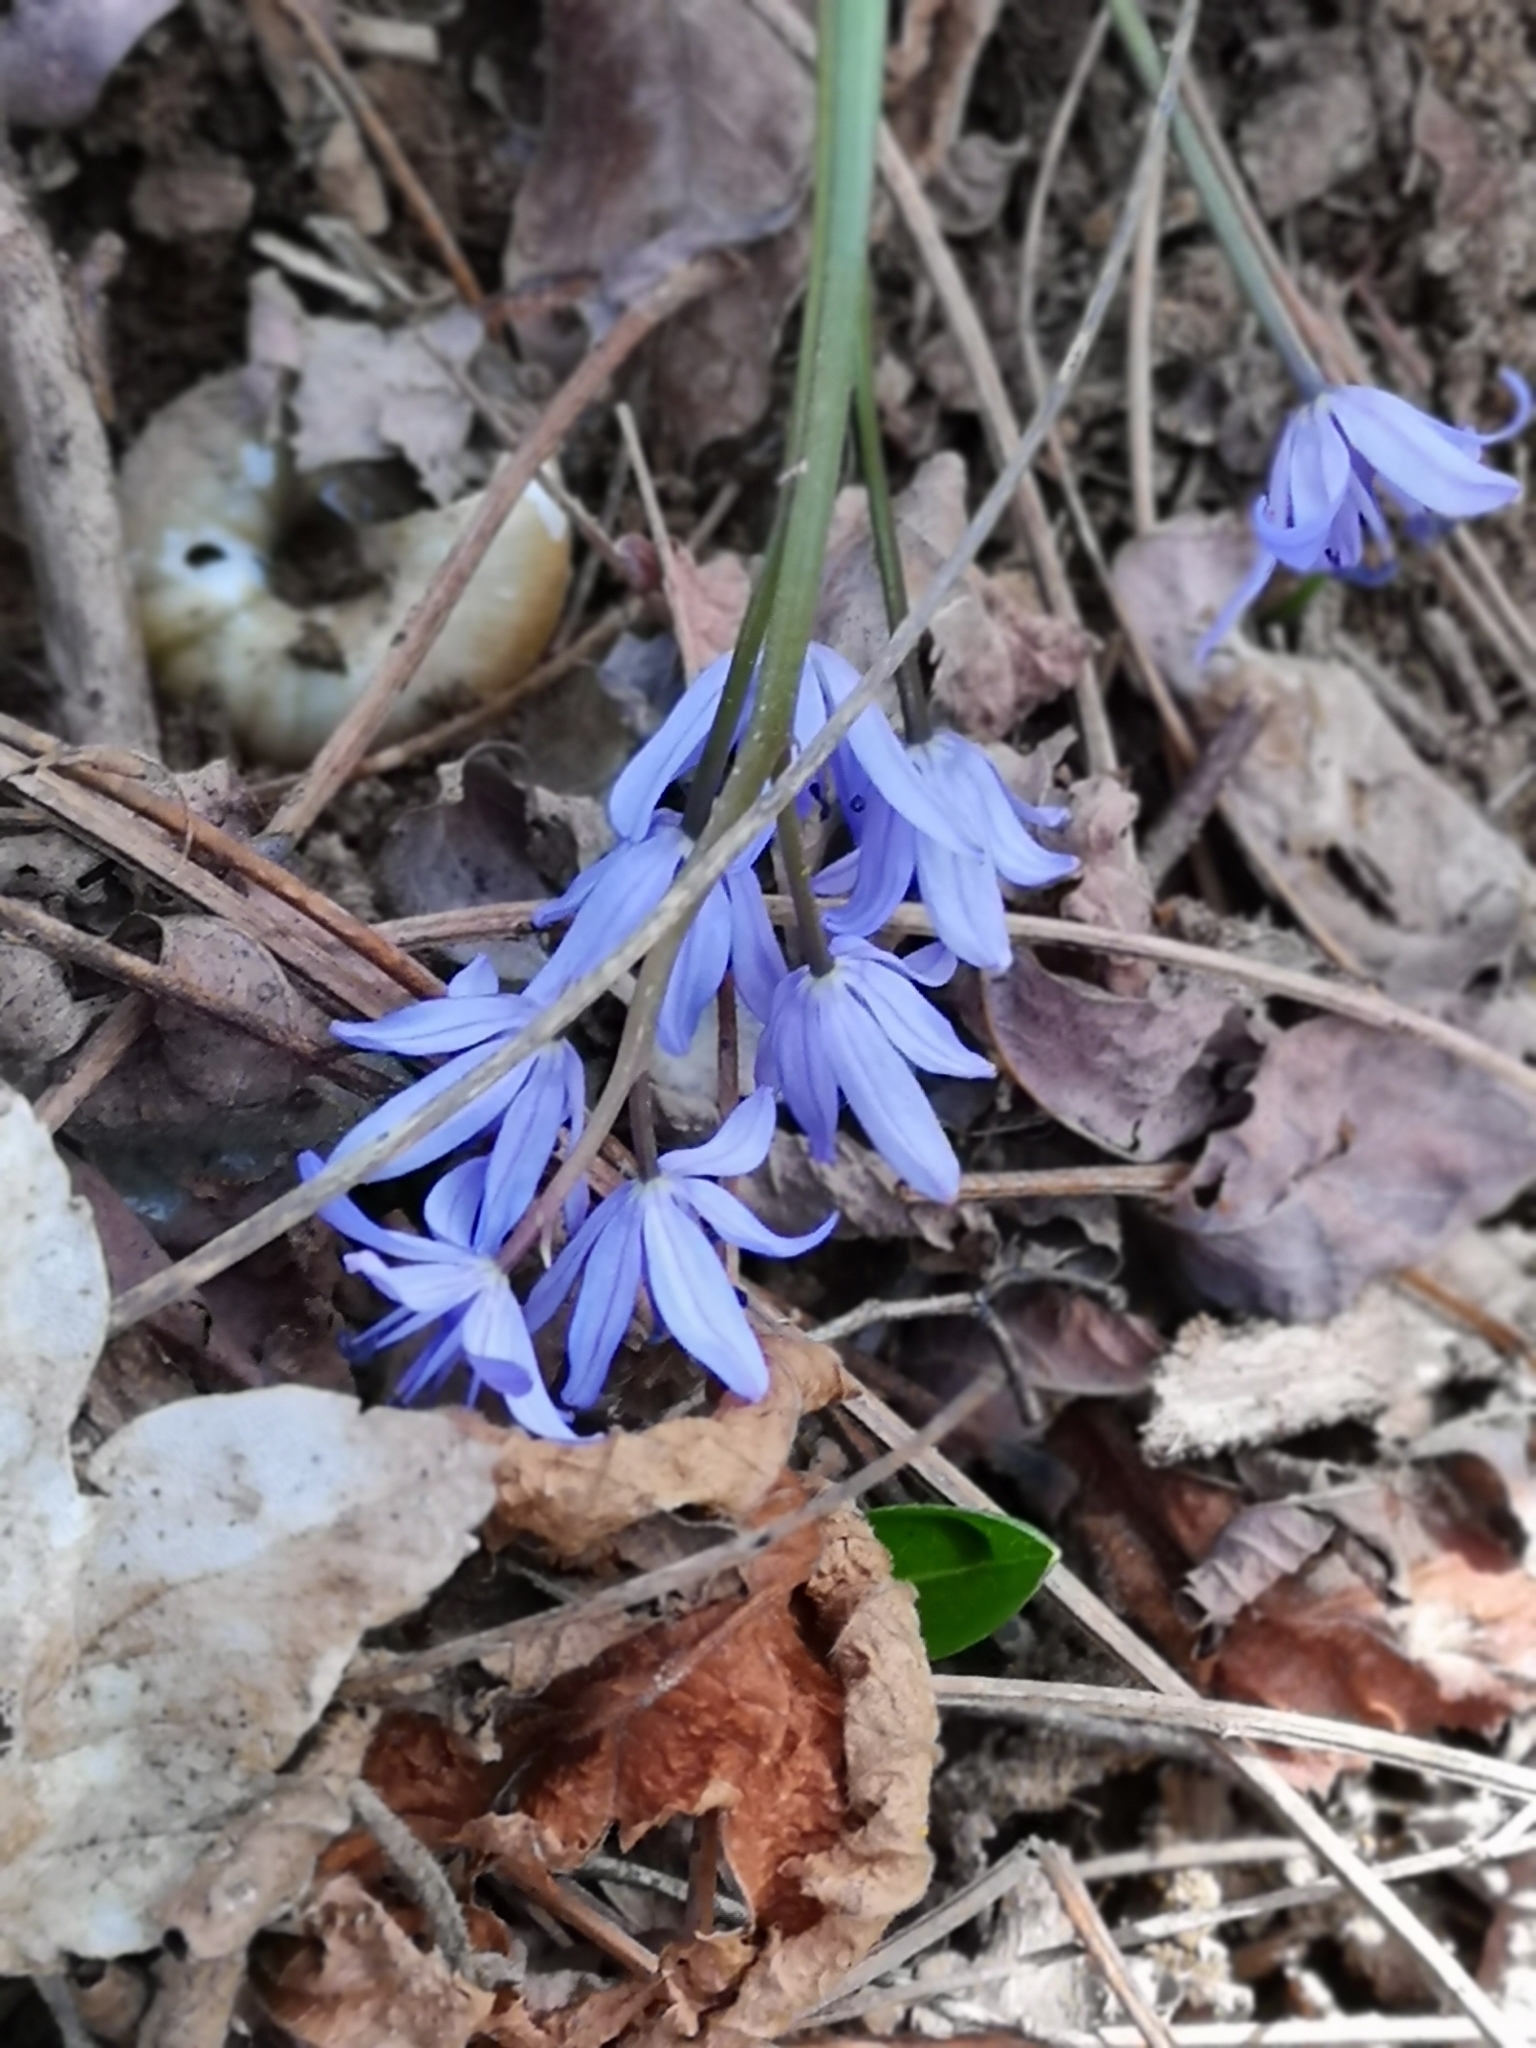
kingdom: Plantae
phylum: Tracheophyta
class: Liliopsida
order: Asparagales
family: Asparagaceae
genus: Scilla
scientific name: Scilla bifolia
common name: Alpine squill
